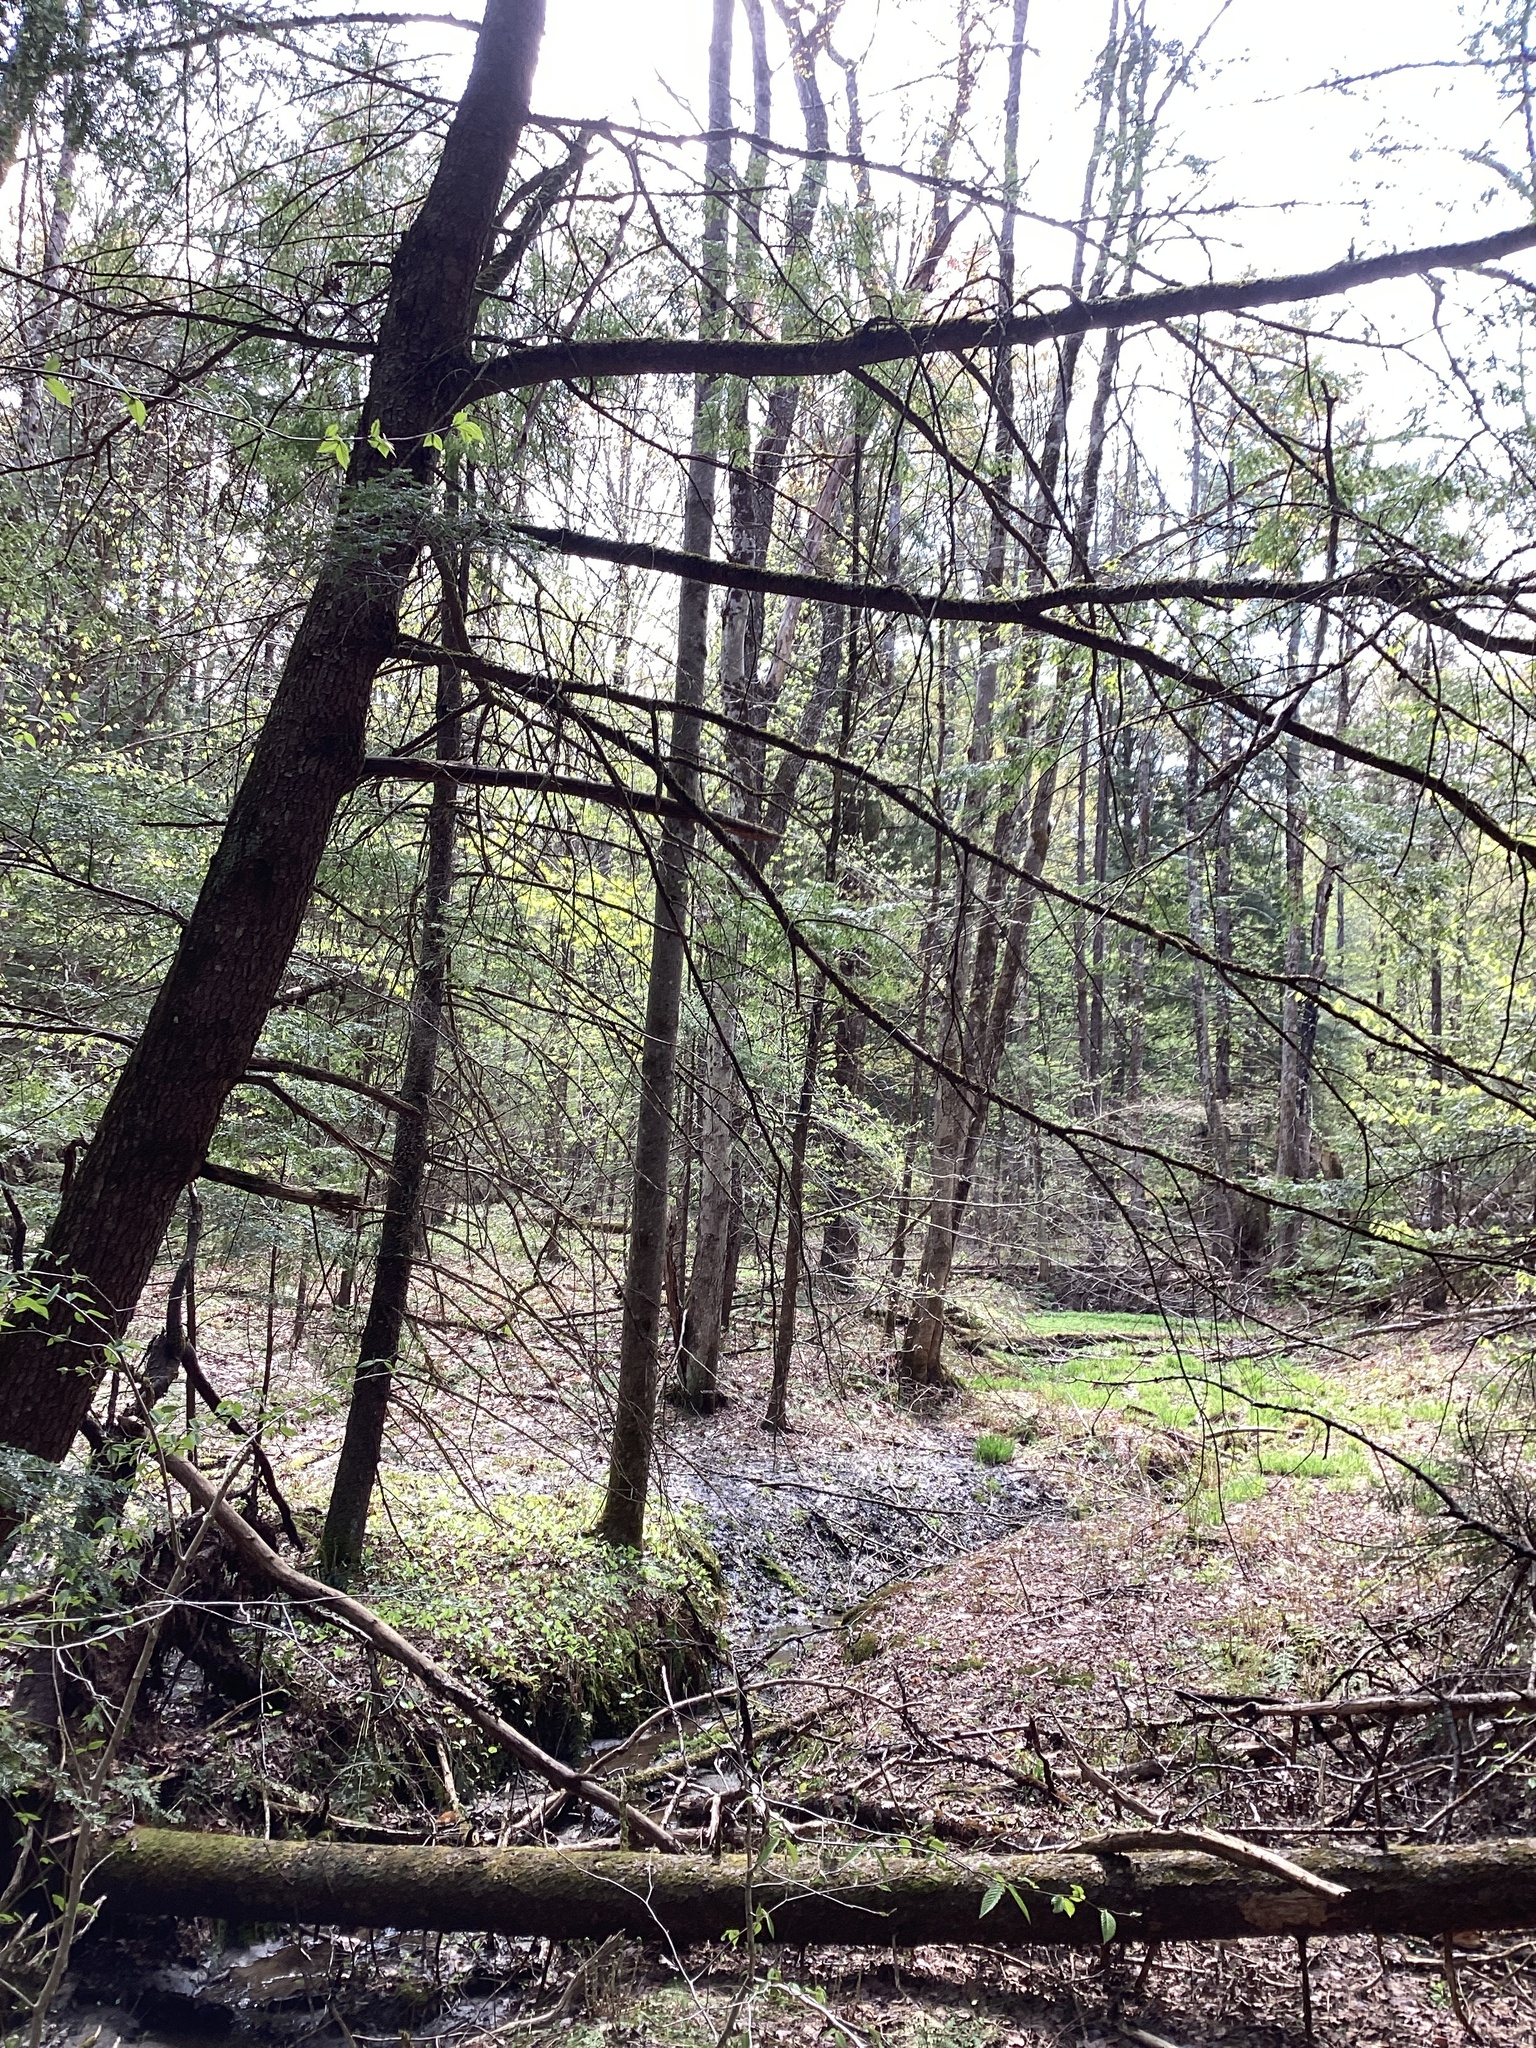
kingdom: Plantae
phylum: Tracheophyta
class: Pinopsida
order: Pinales
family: Pinaceae
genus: Tsuga
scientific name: Tsuga canadensis
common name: Eastern hemlock
